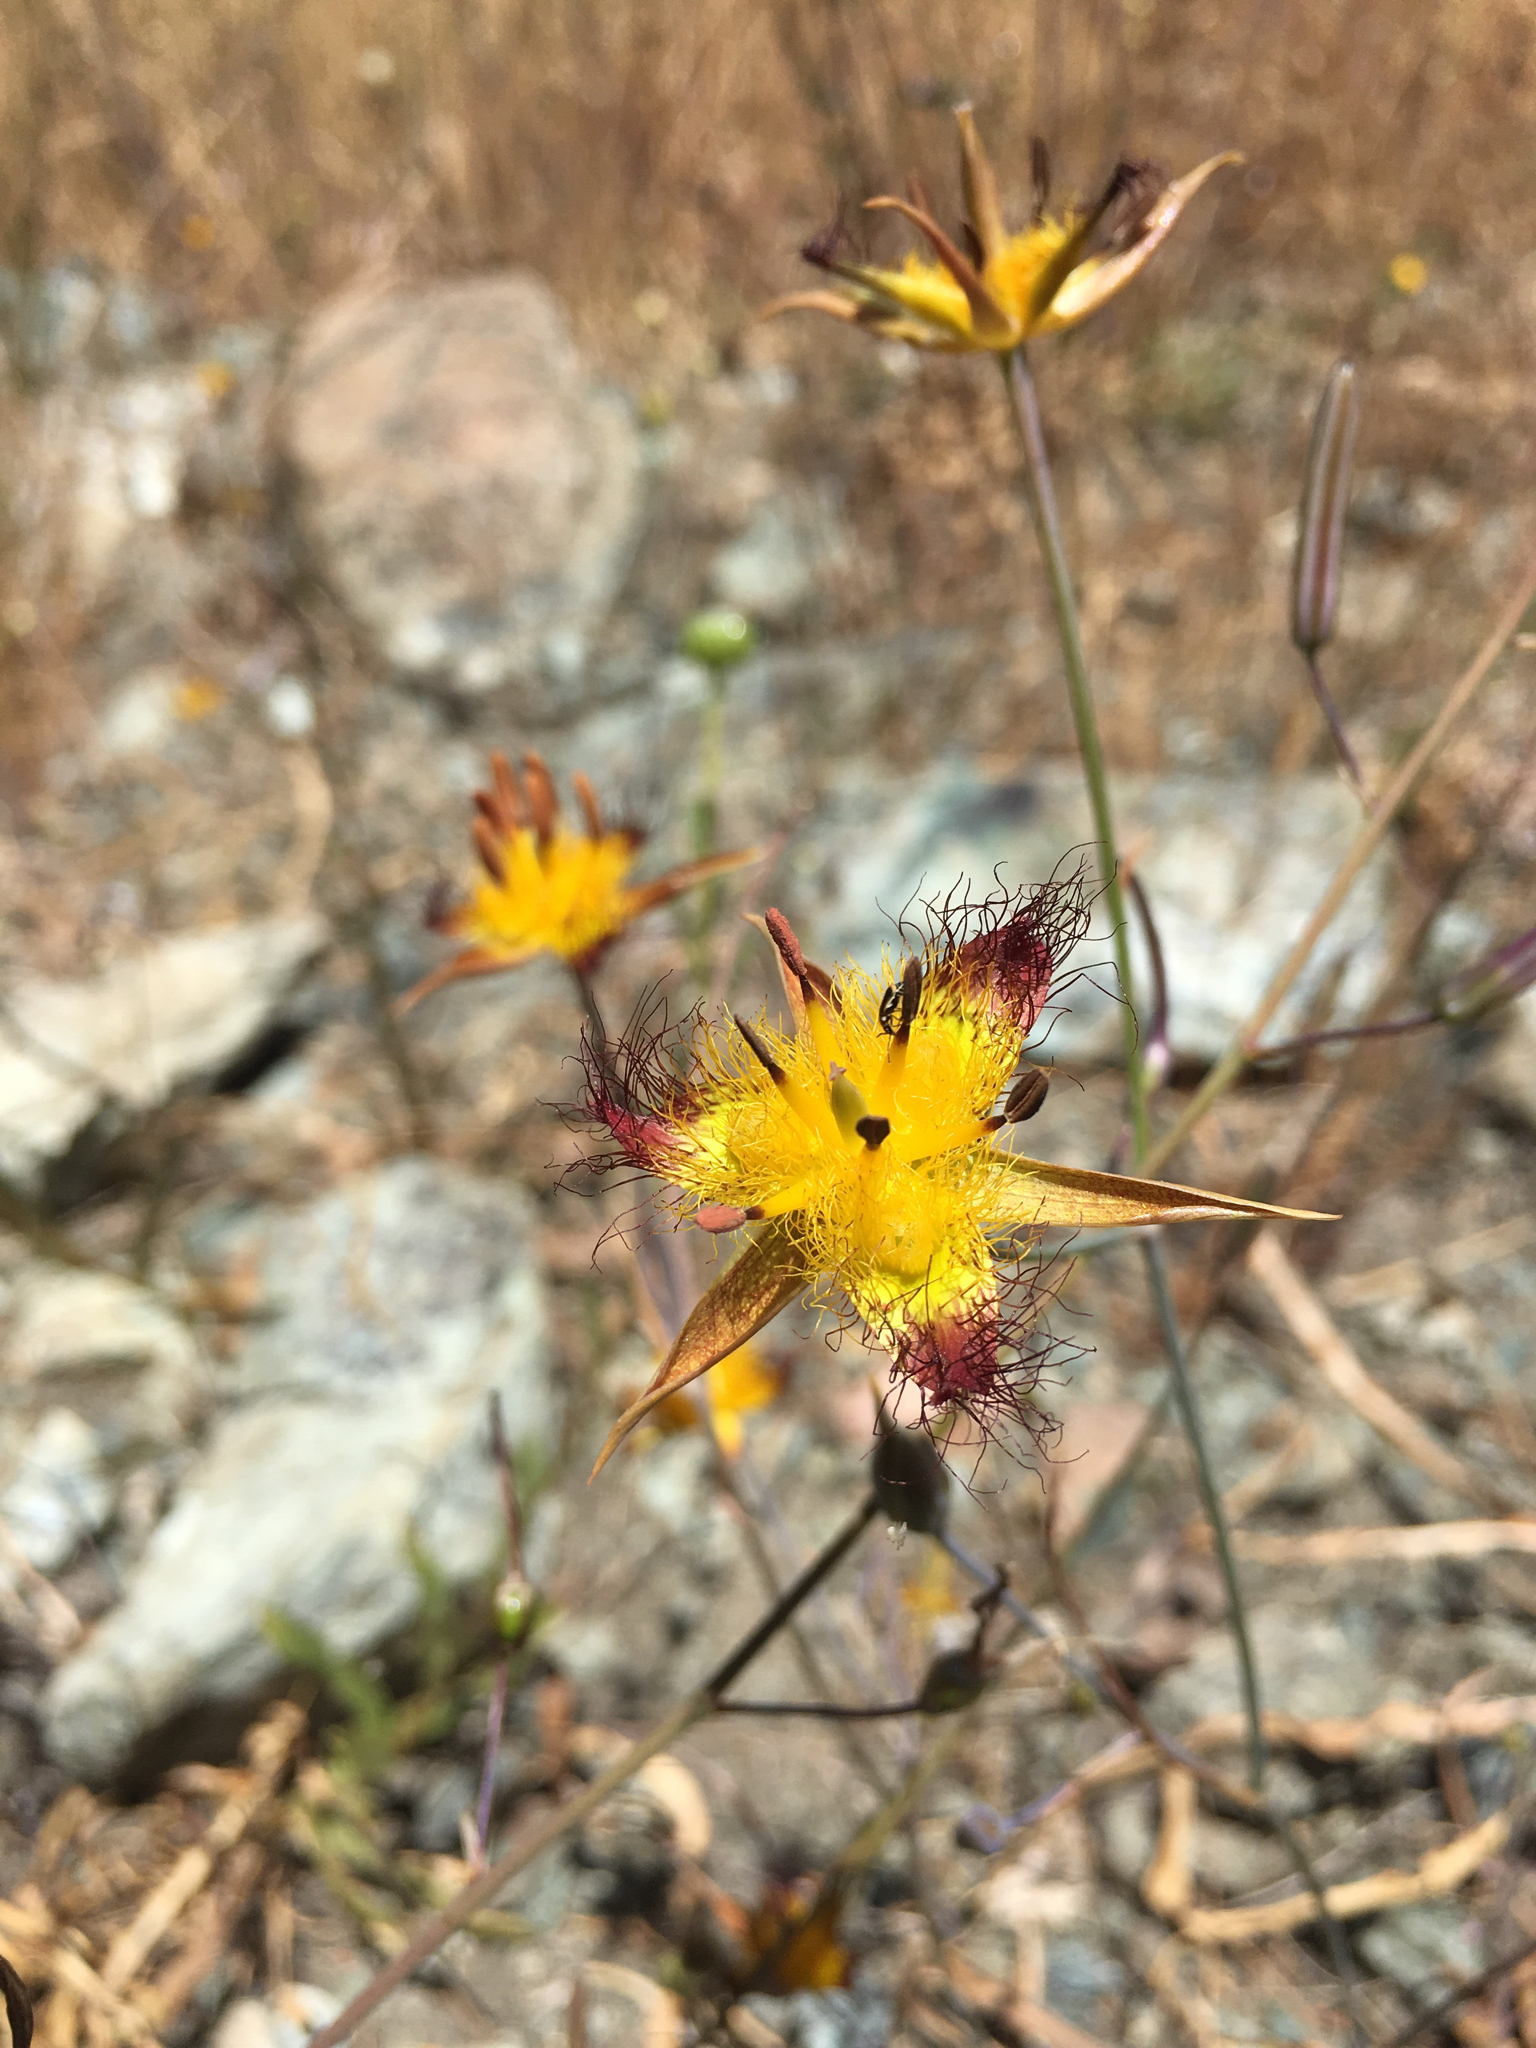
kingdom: Plantae
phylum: Tracheophyta
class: Liliopsida
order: Liliales
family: Liliaceae
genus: Calochortus
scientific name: Calochortus obispoensis
